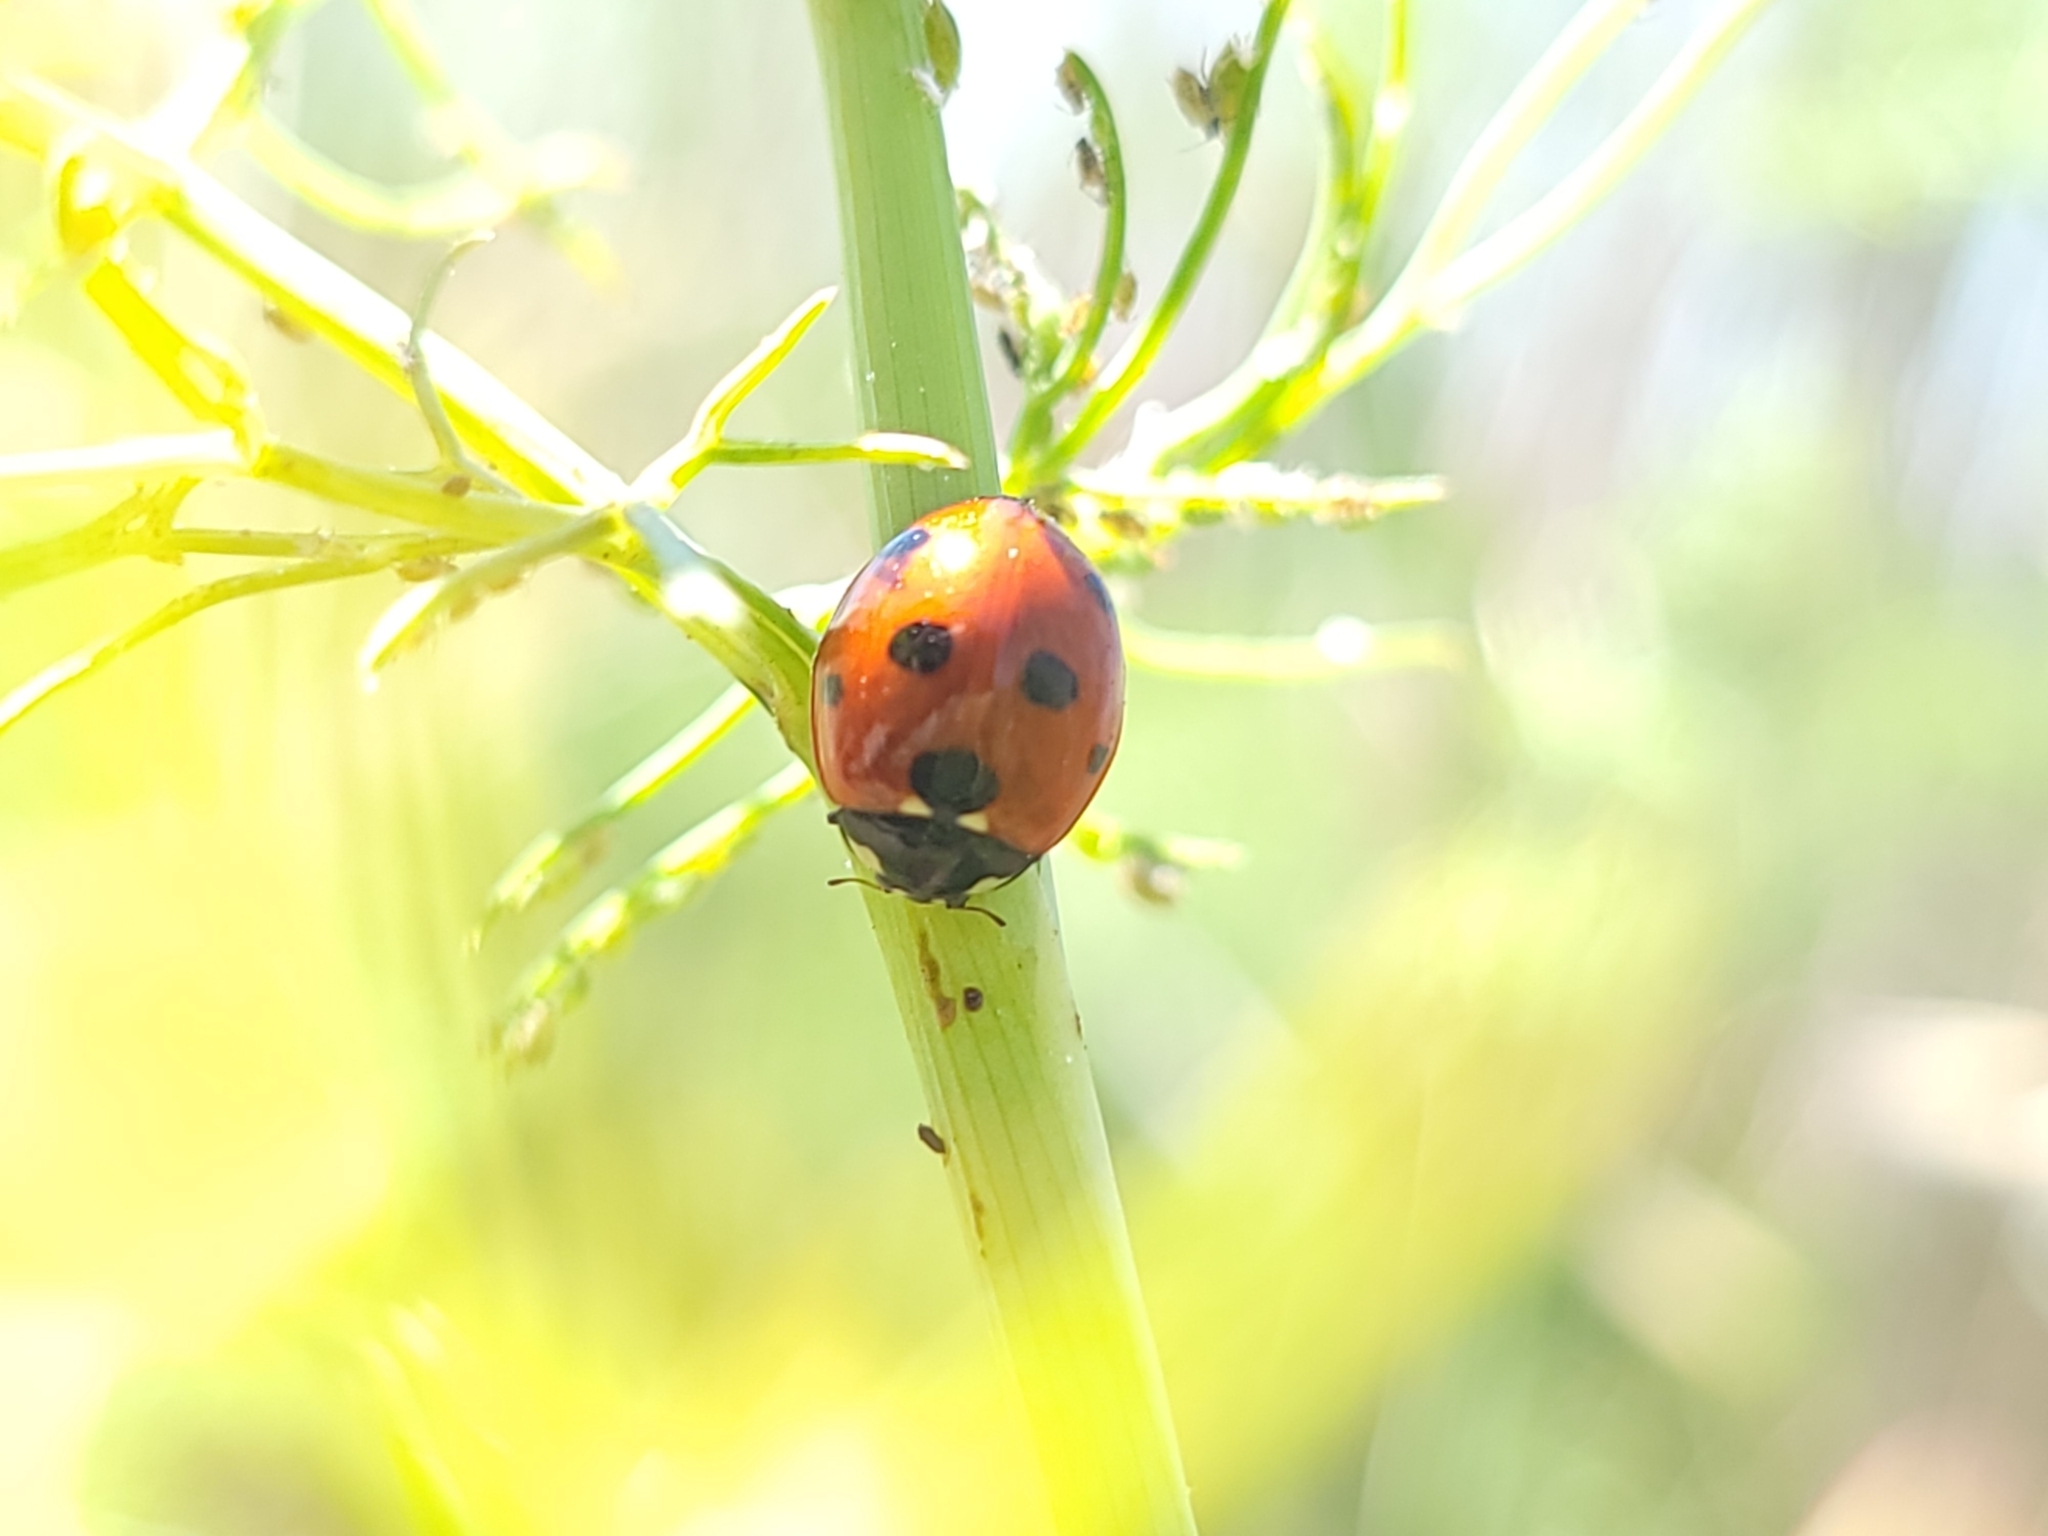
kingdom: Animalia
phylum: Arthropoda
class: Insecta
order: Coleoptera
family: Coccinellidae
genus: Coccinella
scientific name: Coccinella septempunctata
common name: Sevenspotted lady beetle
